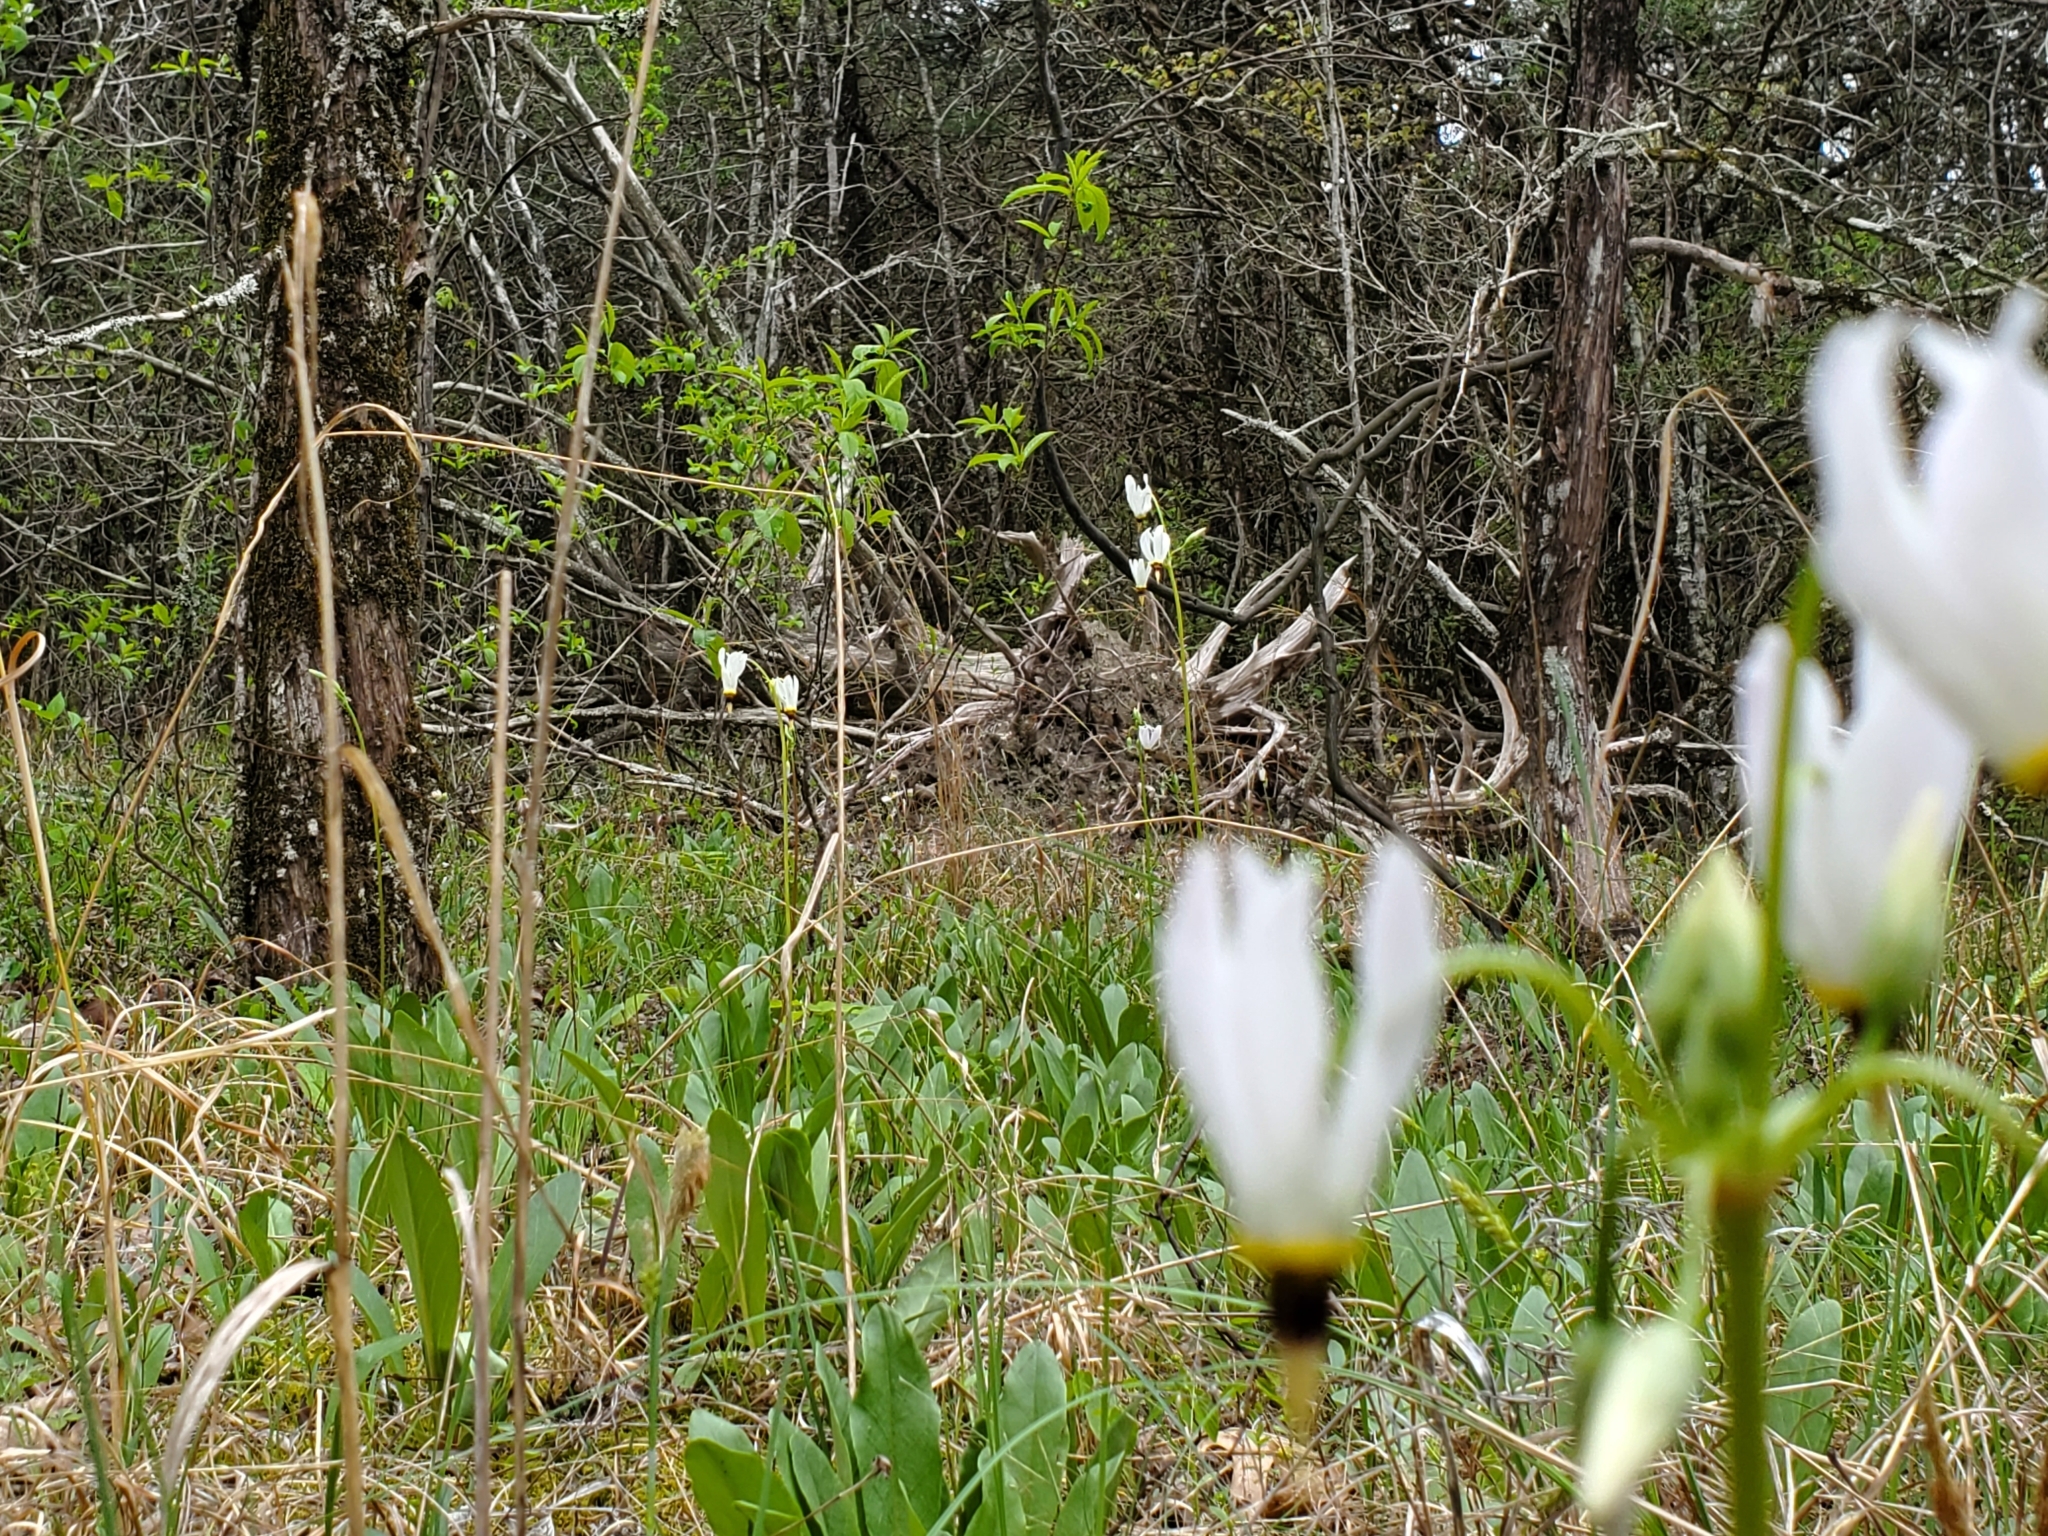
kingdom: Plantae
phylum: Tracheophyta
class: Magnoliopsida
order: Ericales
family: Primulaceae
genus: Dodecatheon
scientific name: Dodecatheon meadia
